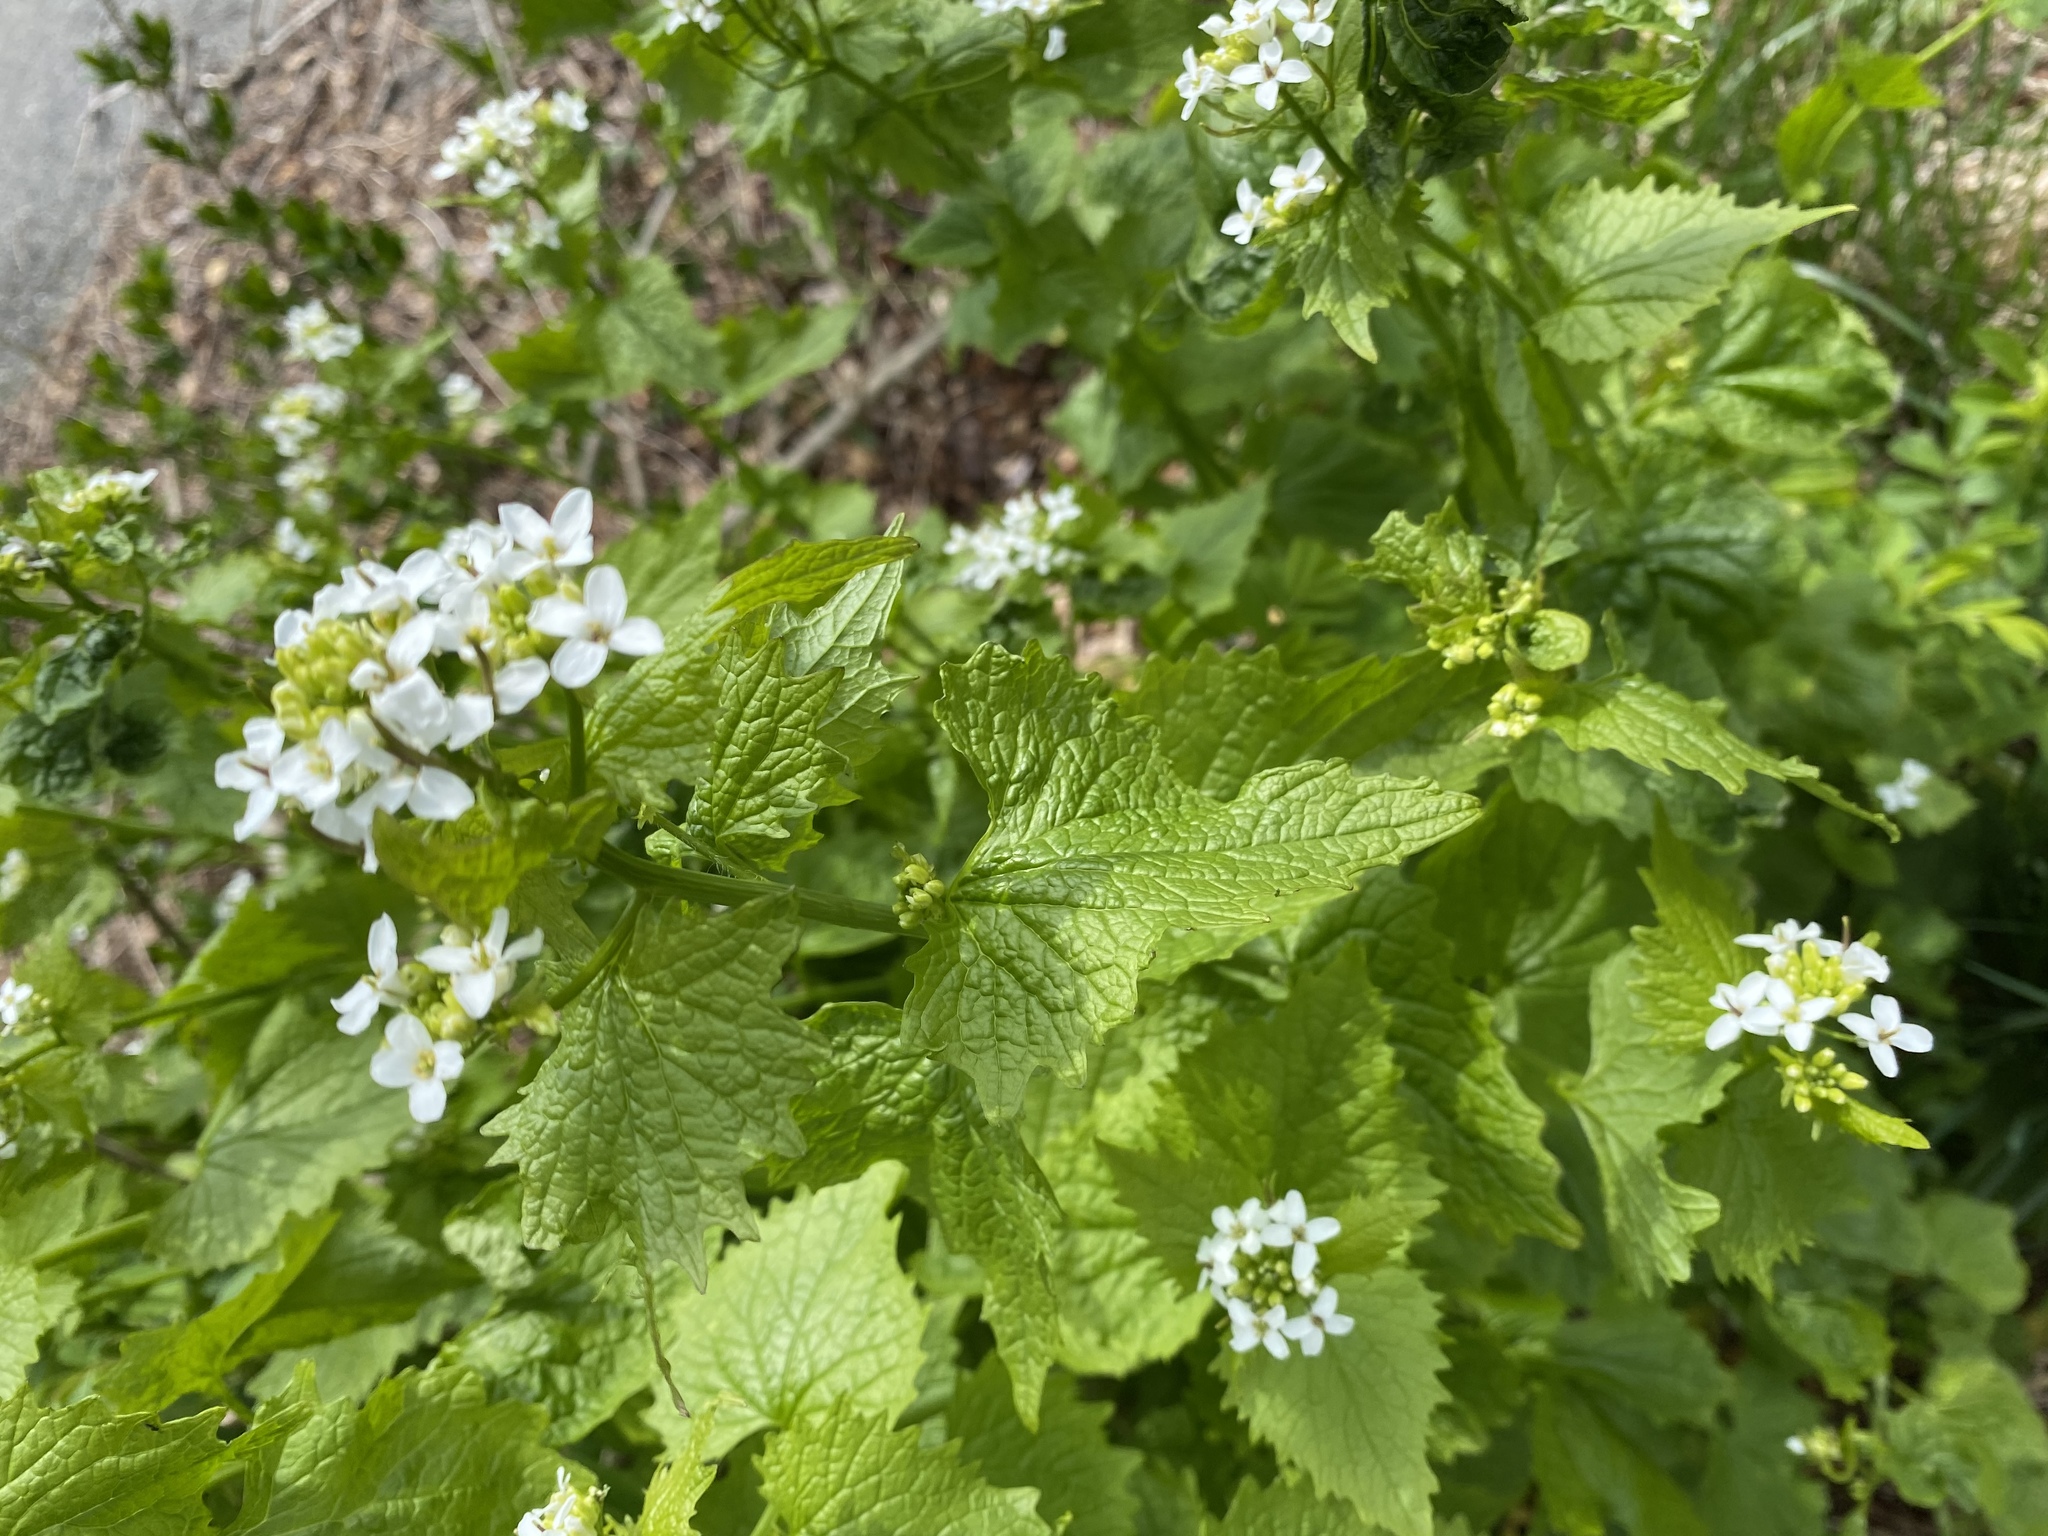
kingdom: Plantae
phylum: Tracheophyta
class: Magnoliopsida
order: Brassicales
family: Brassicaceae
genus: Alliaria
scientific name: Alliaria petiolata
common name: Garlic mustard
